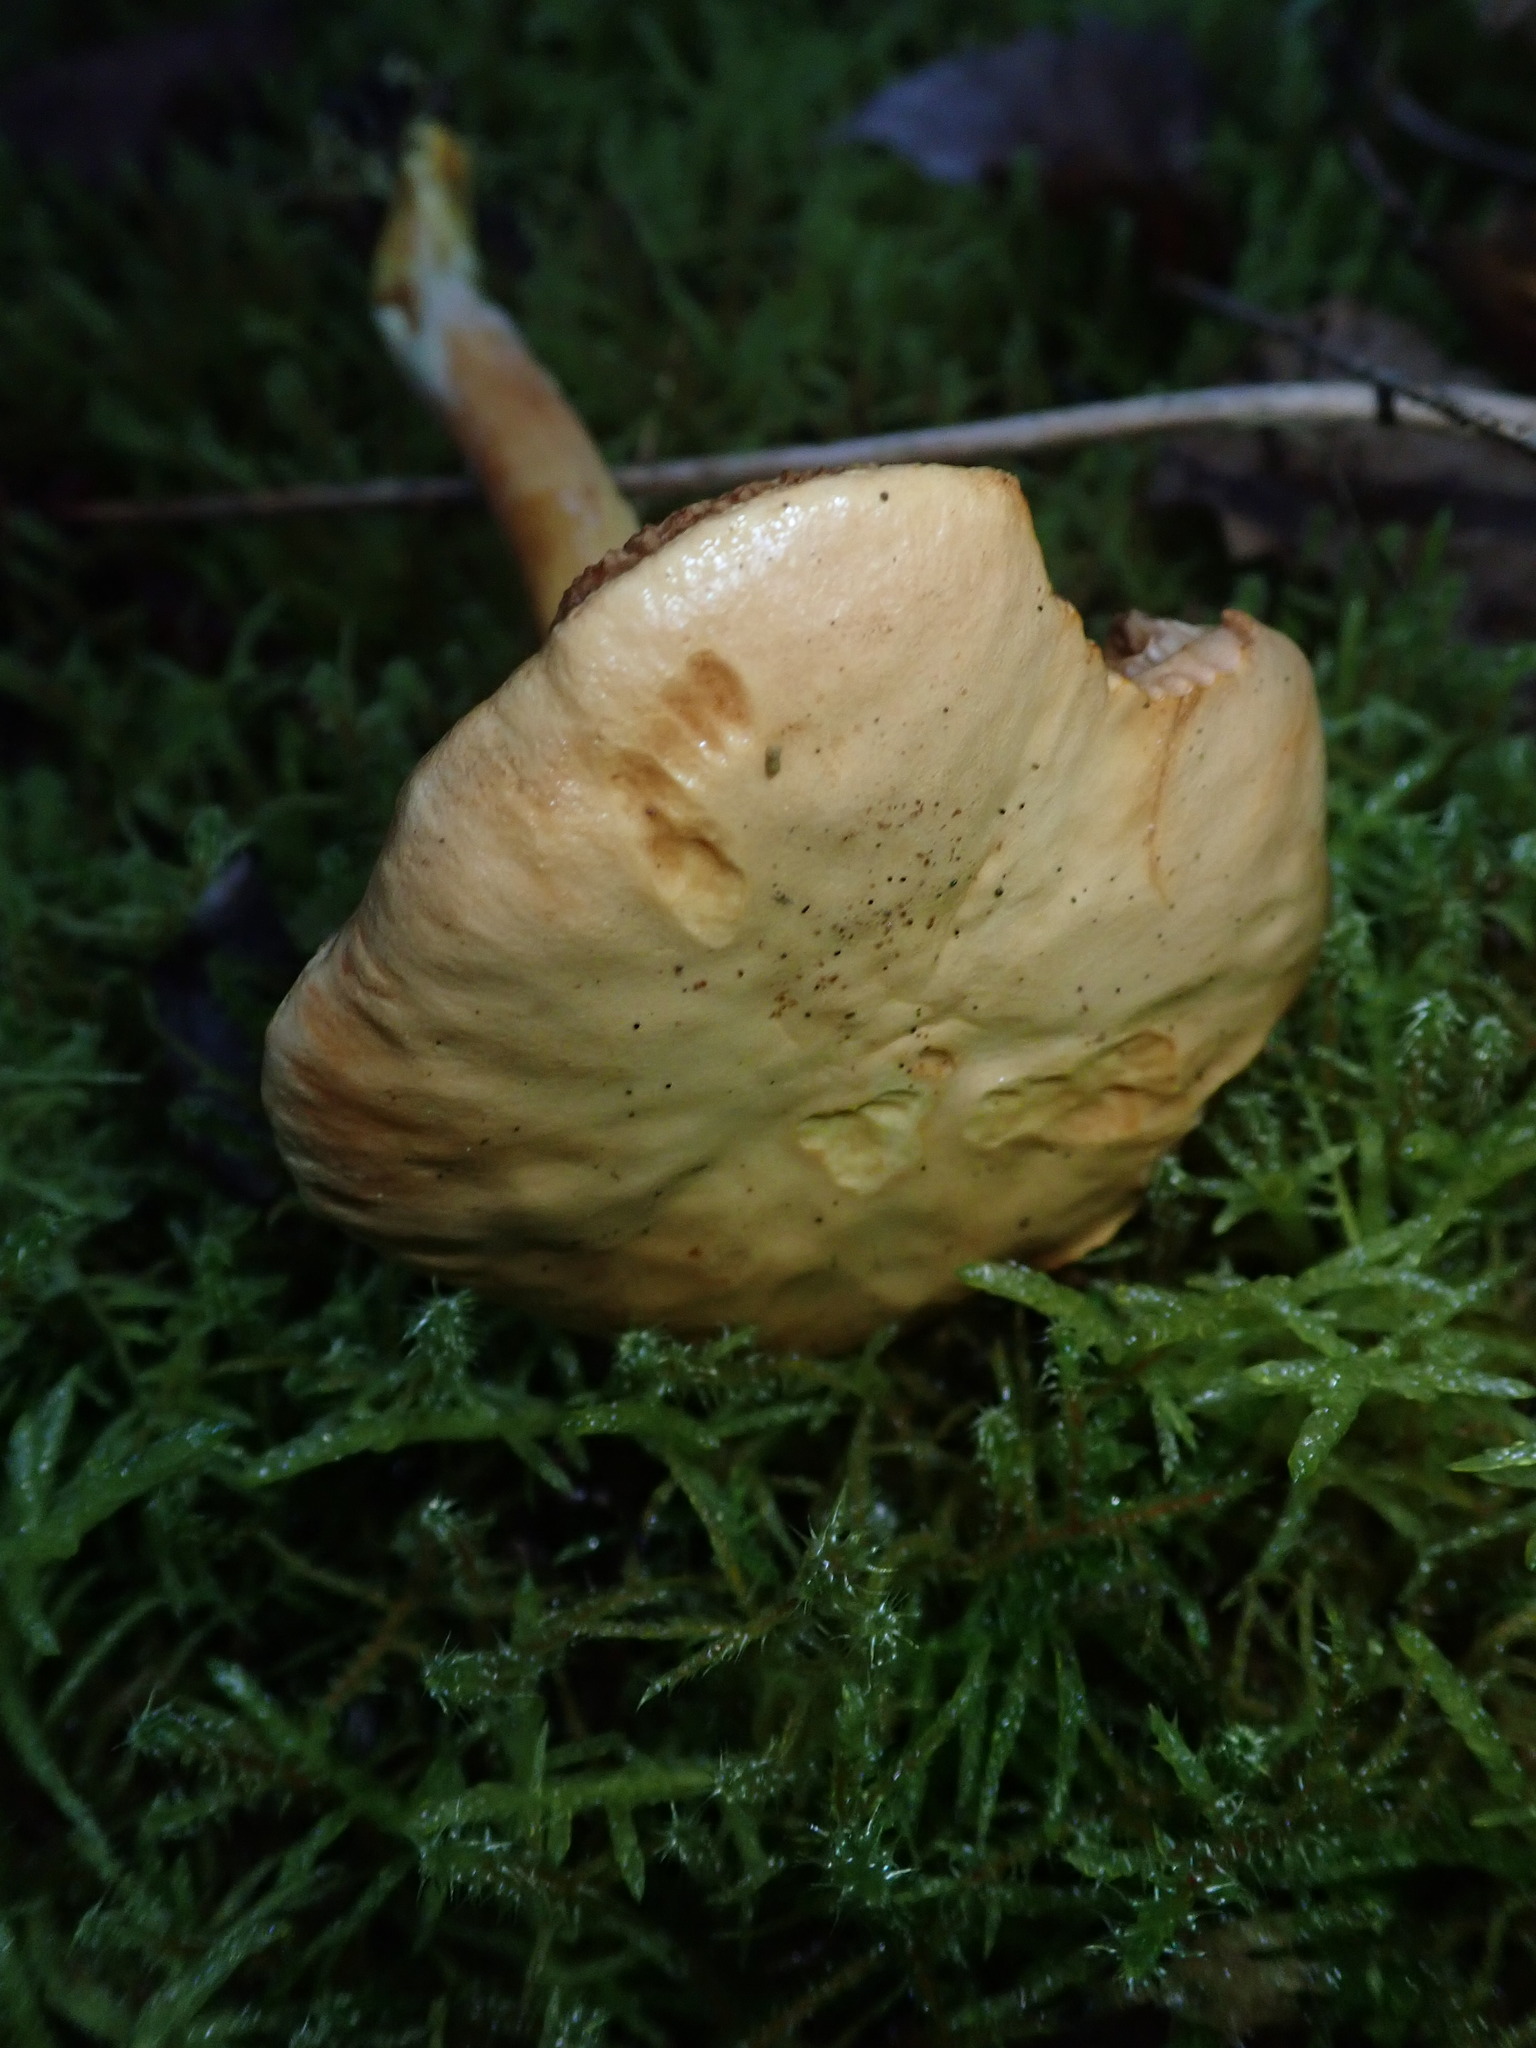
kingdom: Fungi
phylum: Basidiomycota
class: Agaricomycetes
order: Boletales
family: Boletaceae
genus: Chalciporus
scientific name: Chalciporus piperatus
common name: Peppery bolete
